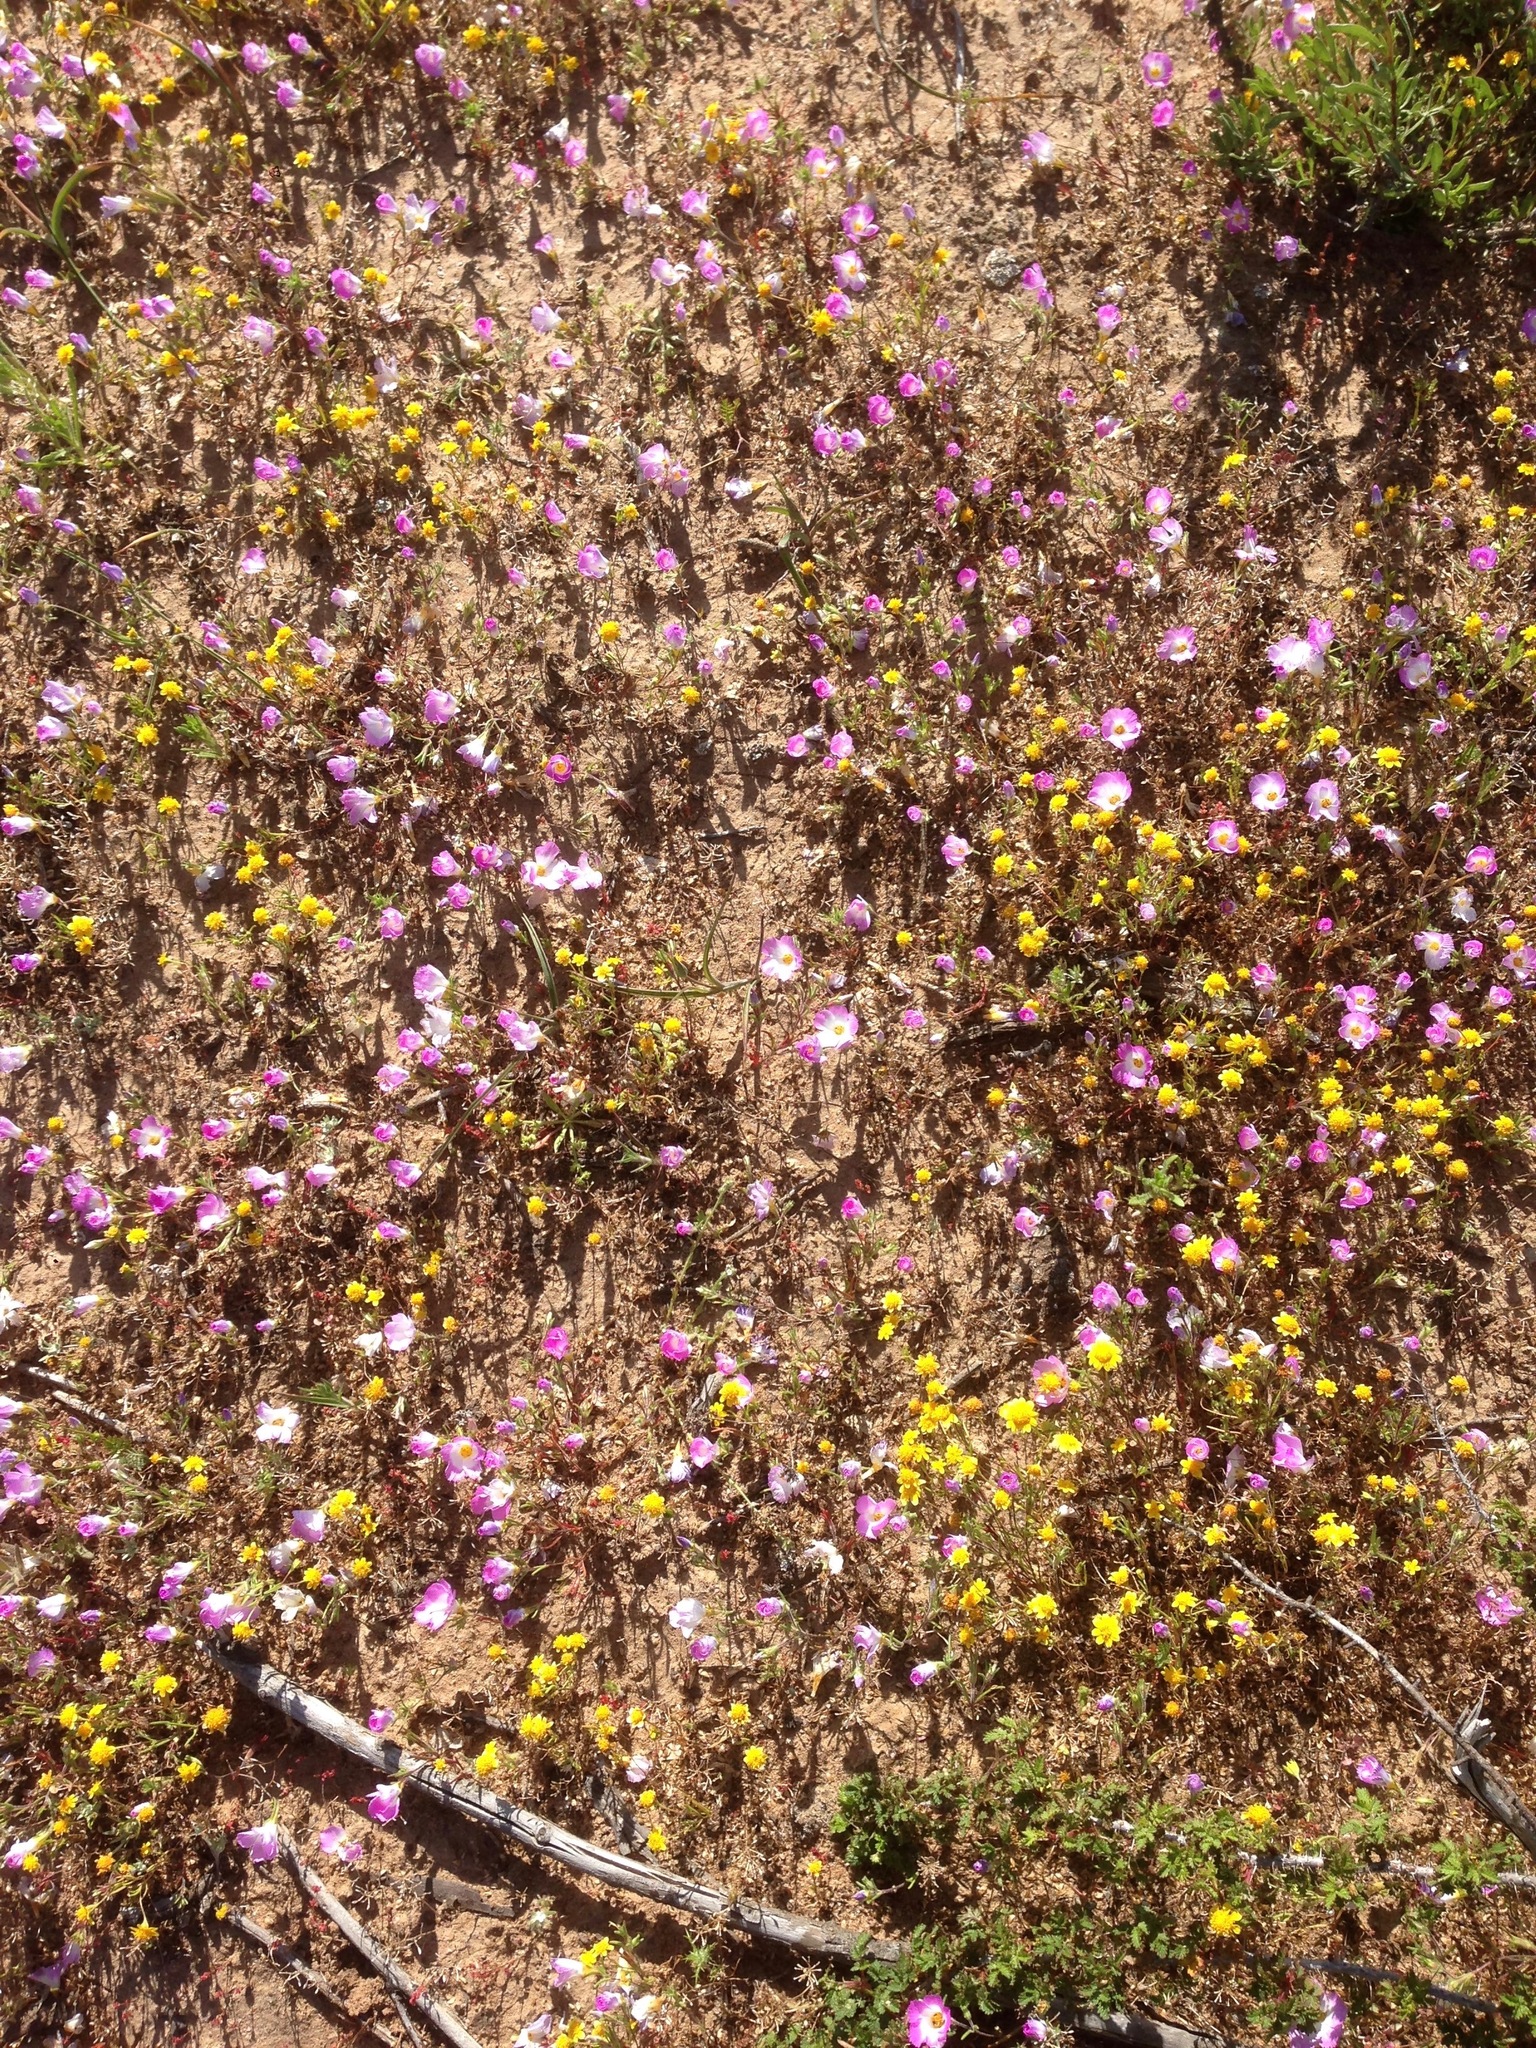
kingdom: Plantae
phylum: Tracheophyta
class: Magnoliopsida
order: Ericales
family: Polemoniaceae
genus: Linanthus
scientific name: Linanthus dianthiflorus
